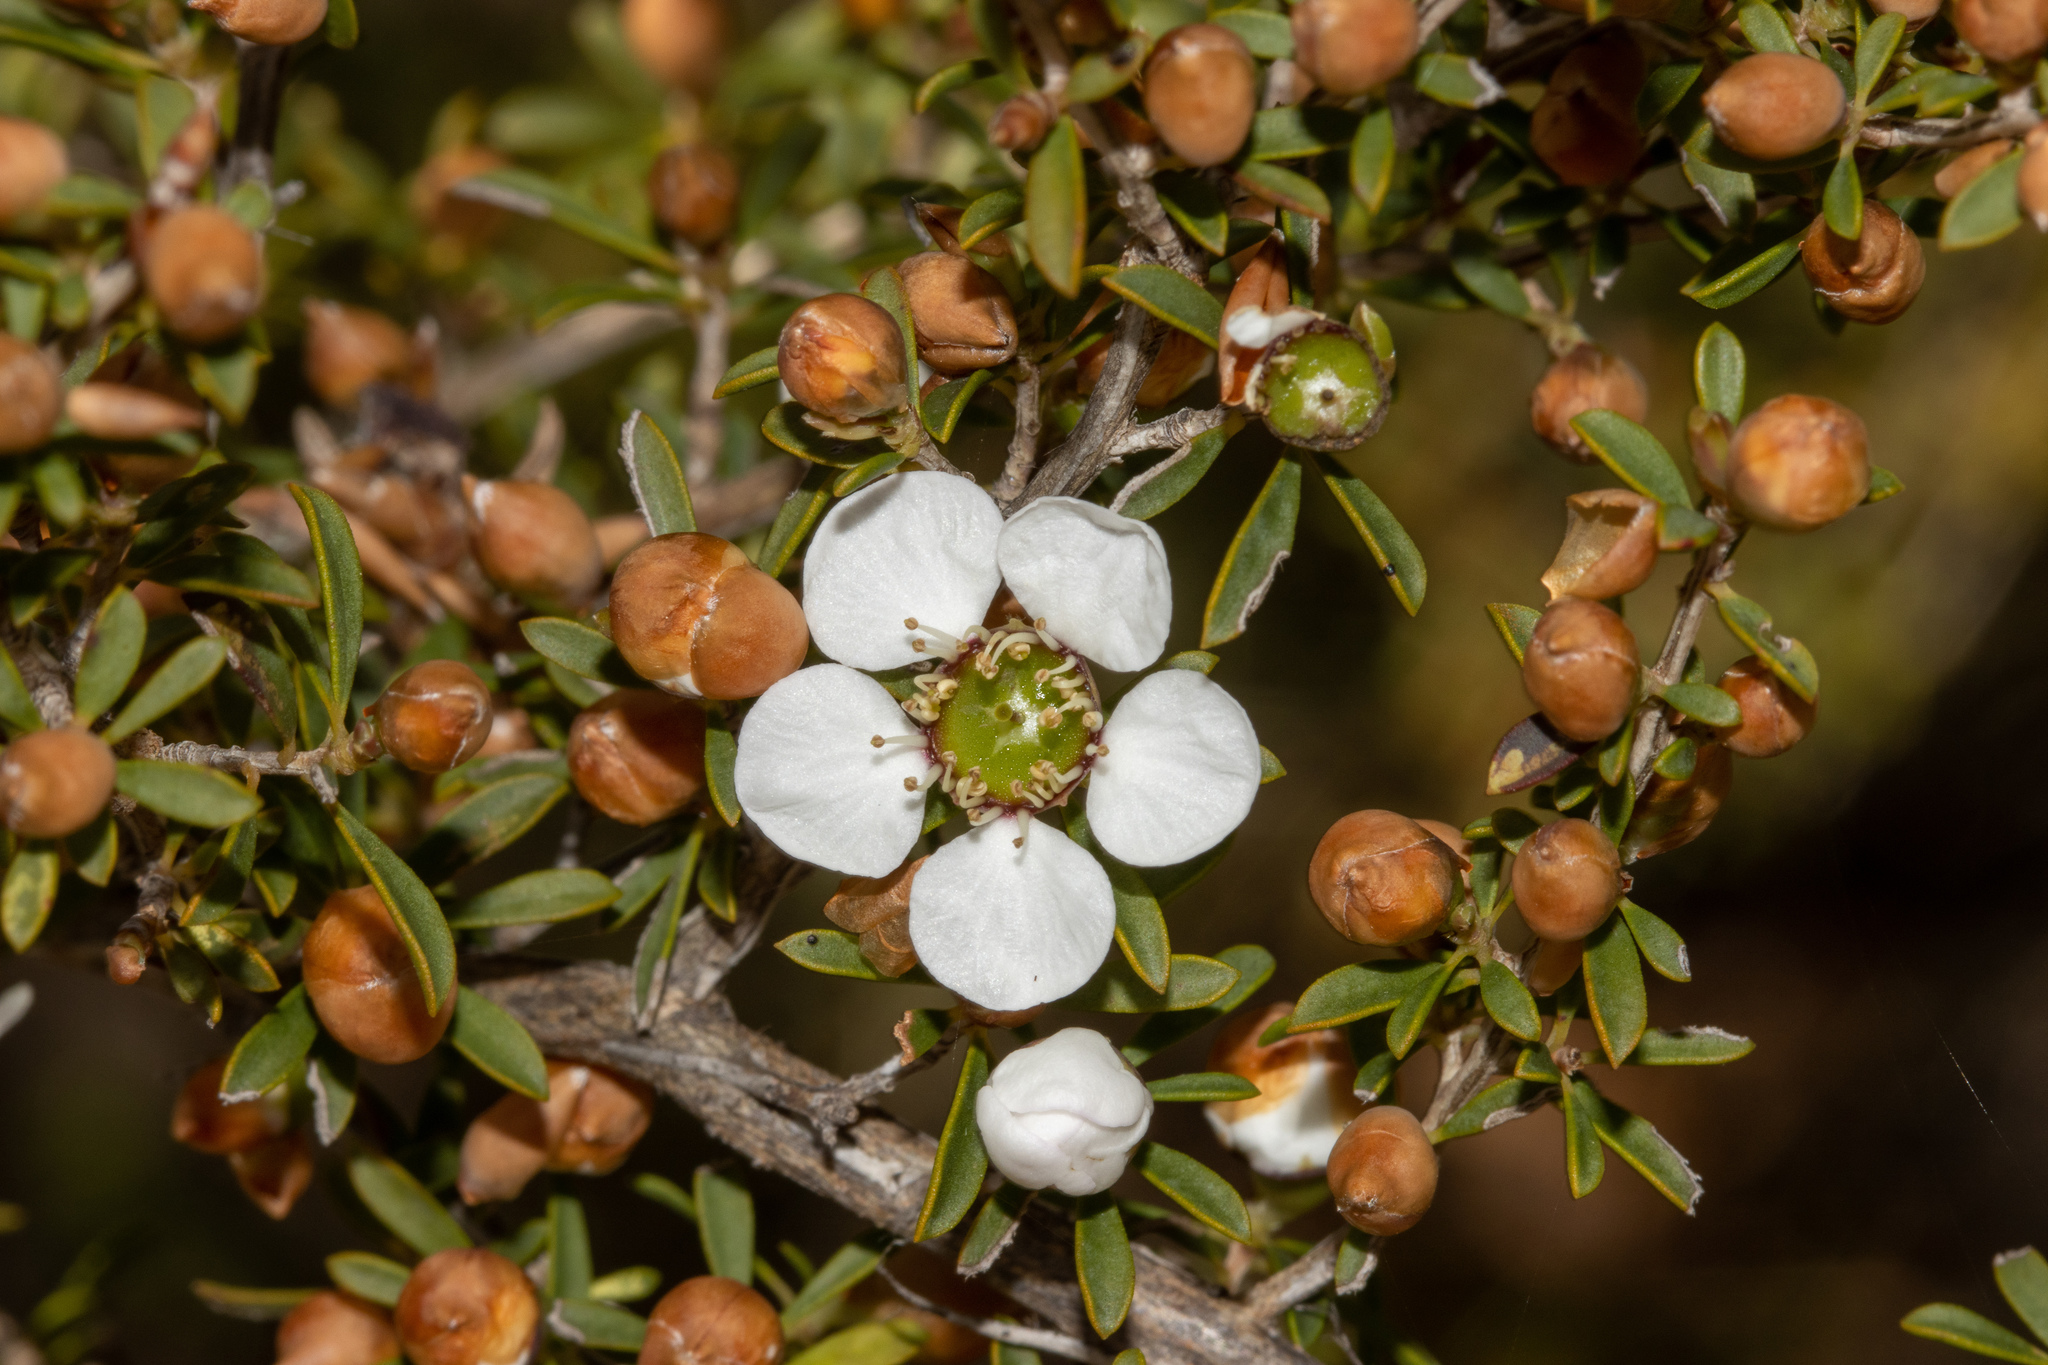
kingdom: Plantae
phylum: Tracheophyta
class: Magnoliopsida
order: Myrtales
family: Myrtaceae
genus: Leptospermum
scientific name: Leptospermum myrsinoides
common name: Heath teatree
